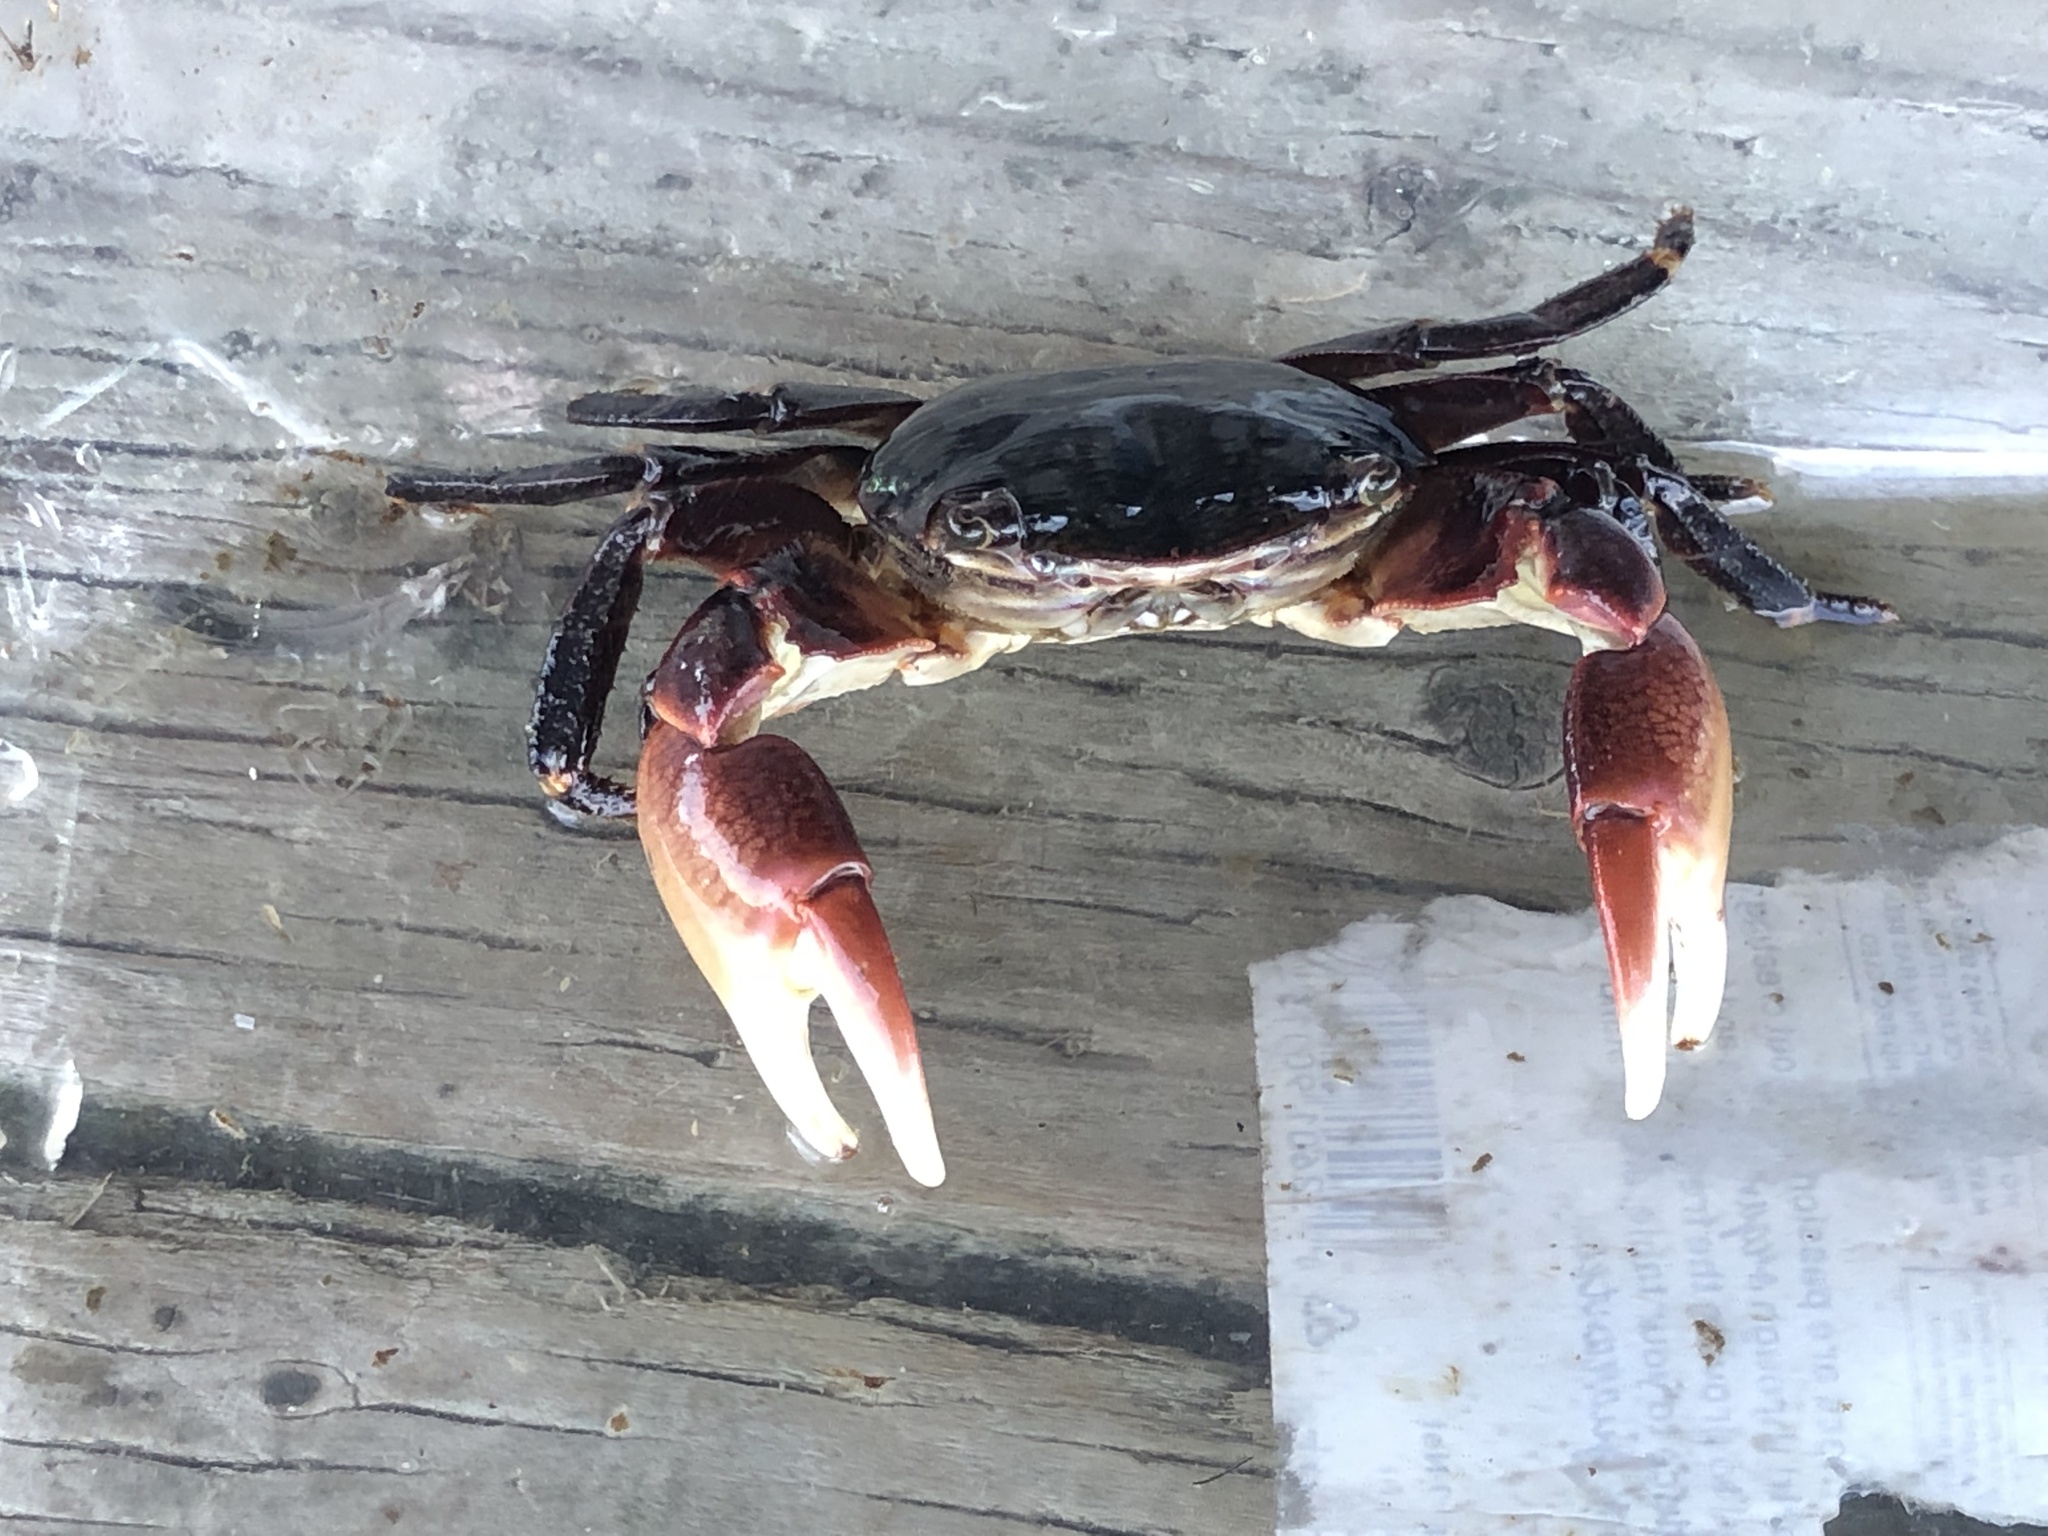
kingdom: Animalia
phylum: Arthropoda
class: Malacostraca
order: Decapoda
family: Grapsidae
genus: Pachygrapsus
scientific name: Pachygrapsus crassipes
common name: Striped shore crab
